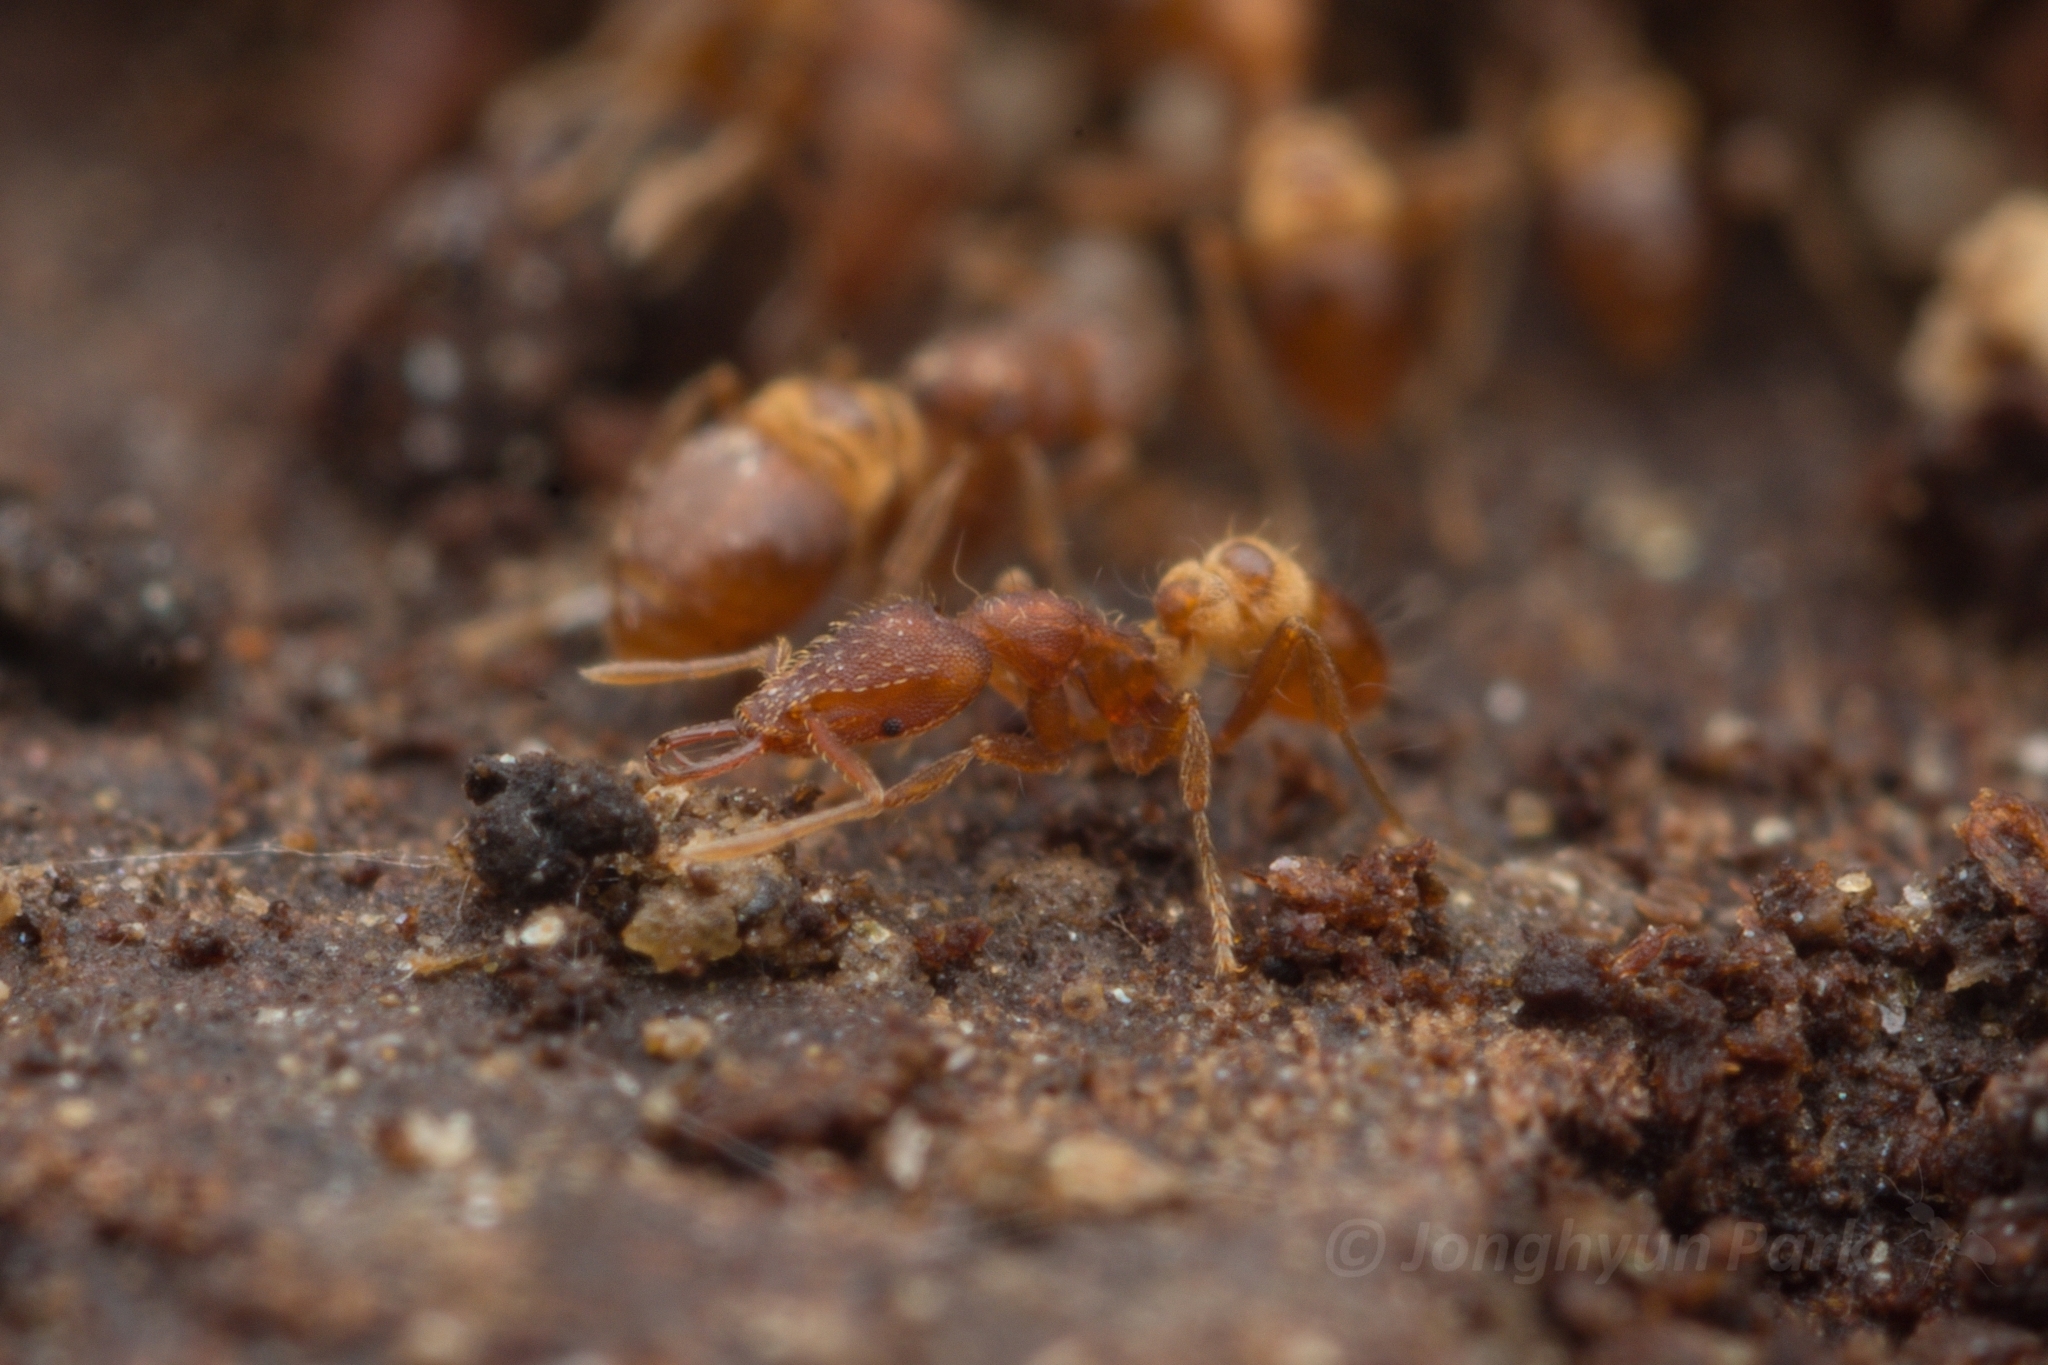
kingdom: Animalia
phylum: Arthropoda
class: Insecta
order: Hymenoptera
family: Formicidae
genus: Strumigenys
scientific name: Strumigenys kumadori
